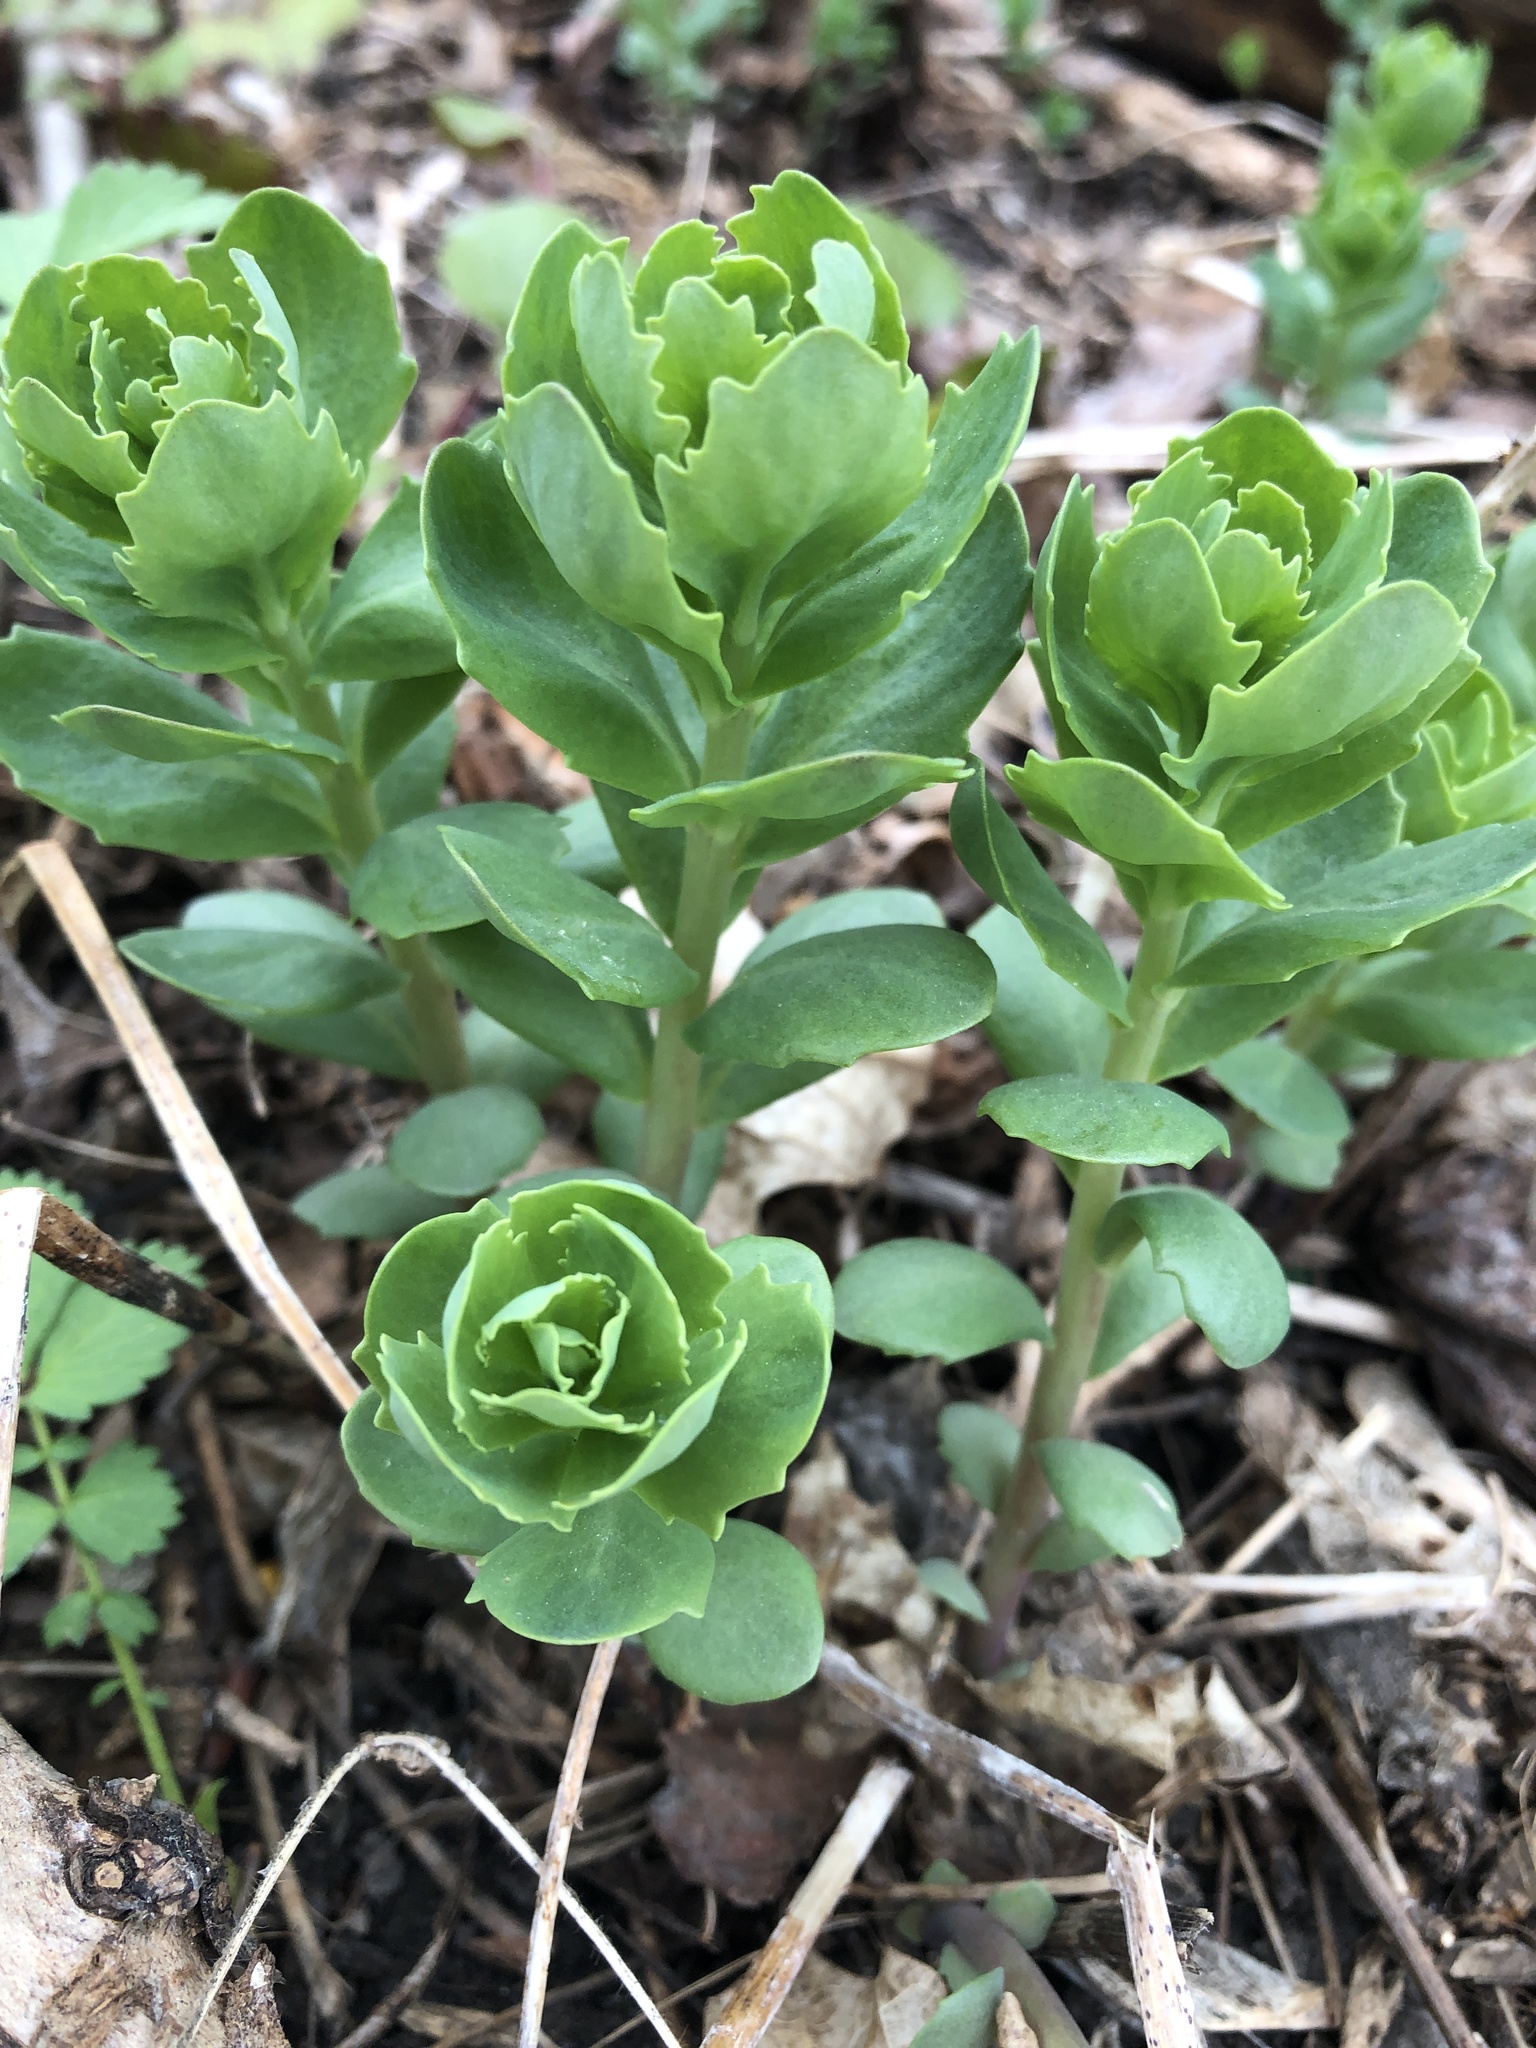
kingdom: Plantae
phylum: Tracheophyta
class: Magnoliopsida
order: Saxifragales
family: Crassulaceae
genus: Hylotelephium
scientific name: Hylotelephium telephium
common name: Live-forever
